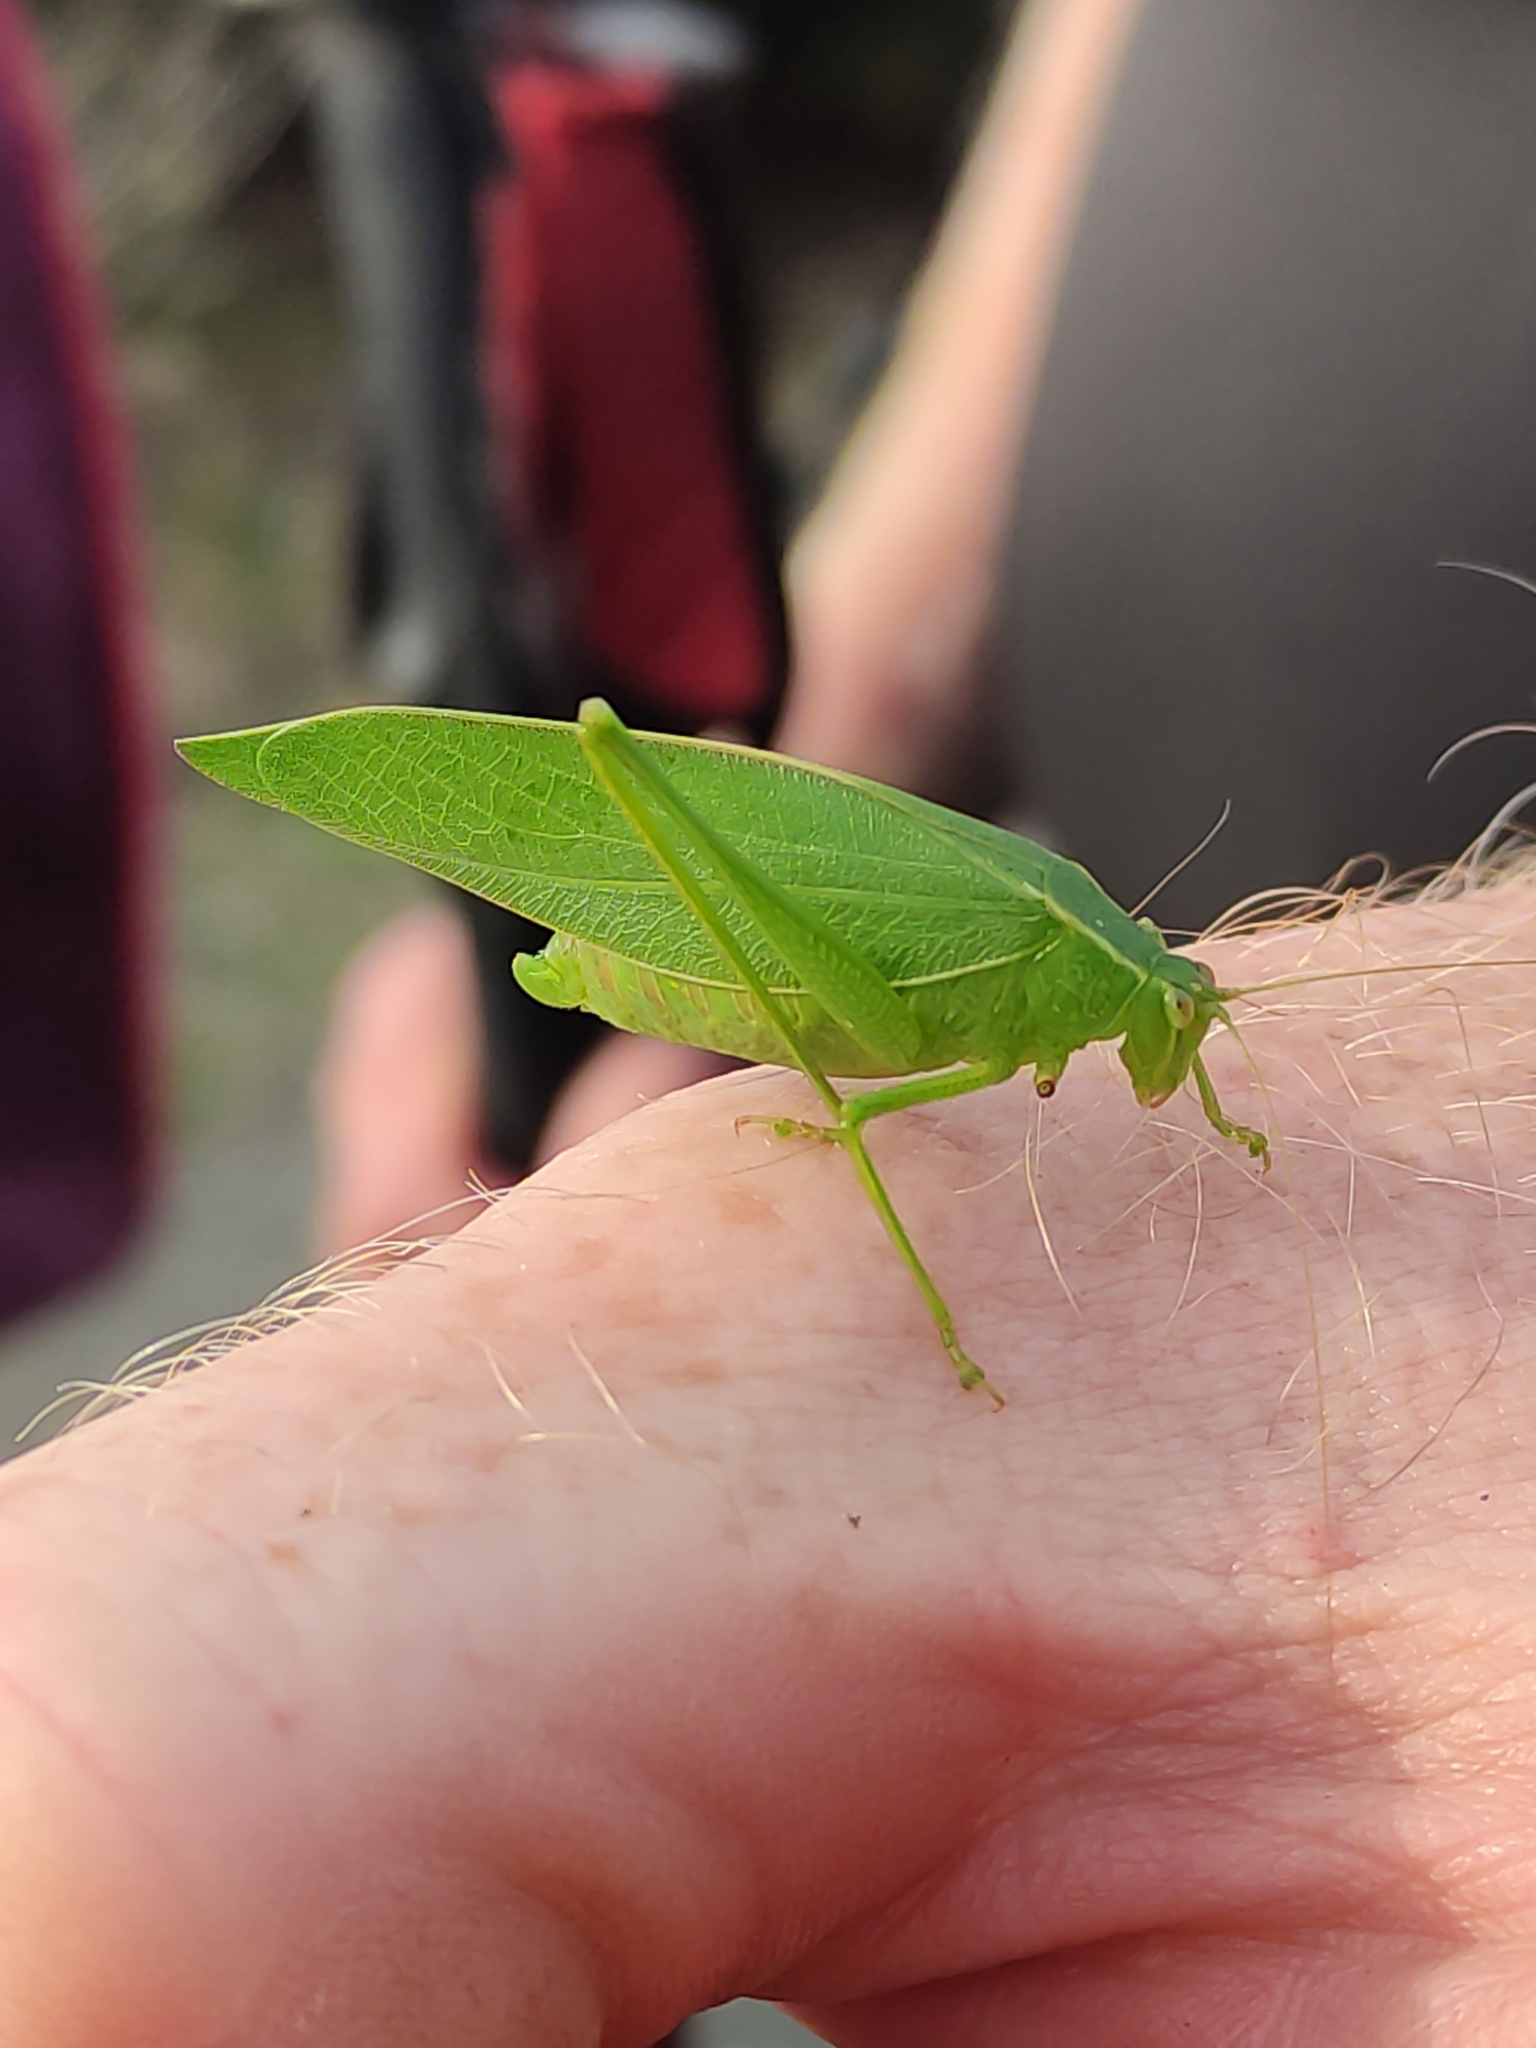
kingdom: Animalia
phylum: Arthropoda
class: Insecta
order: Orthoptera
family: Tettigoniidae
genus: Caedicia
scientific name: Caedicia simplex
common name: Common garden katydid
